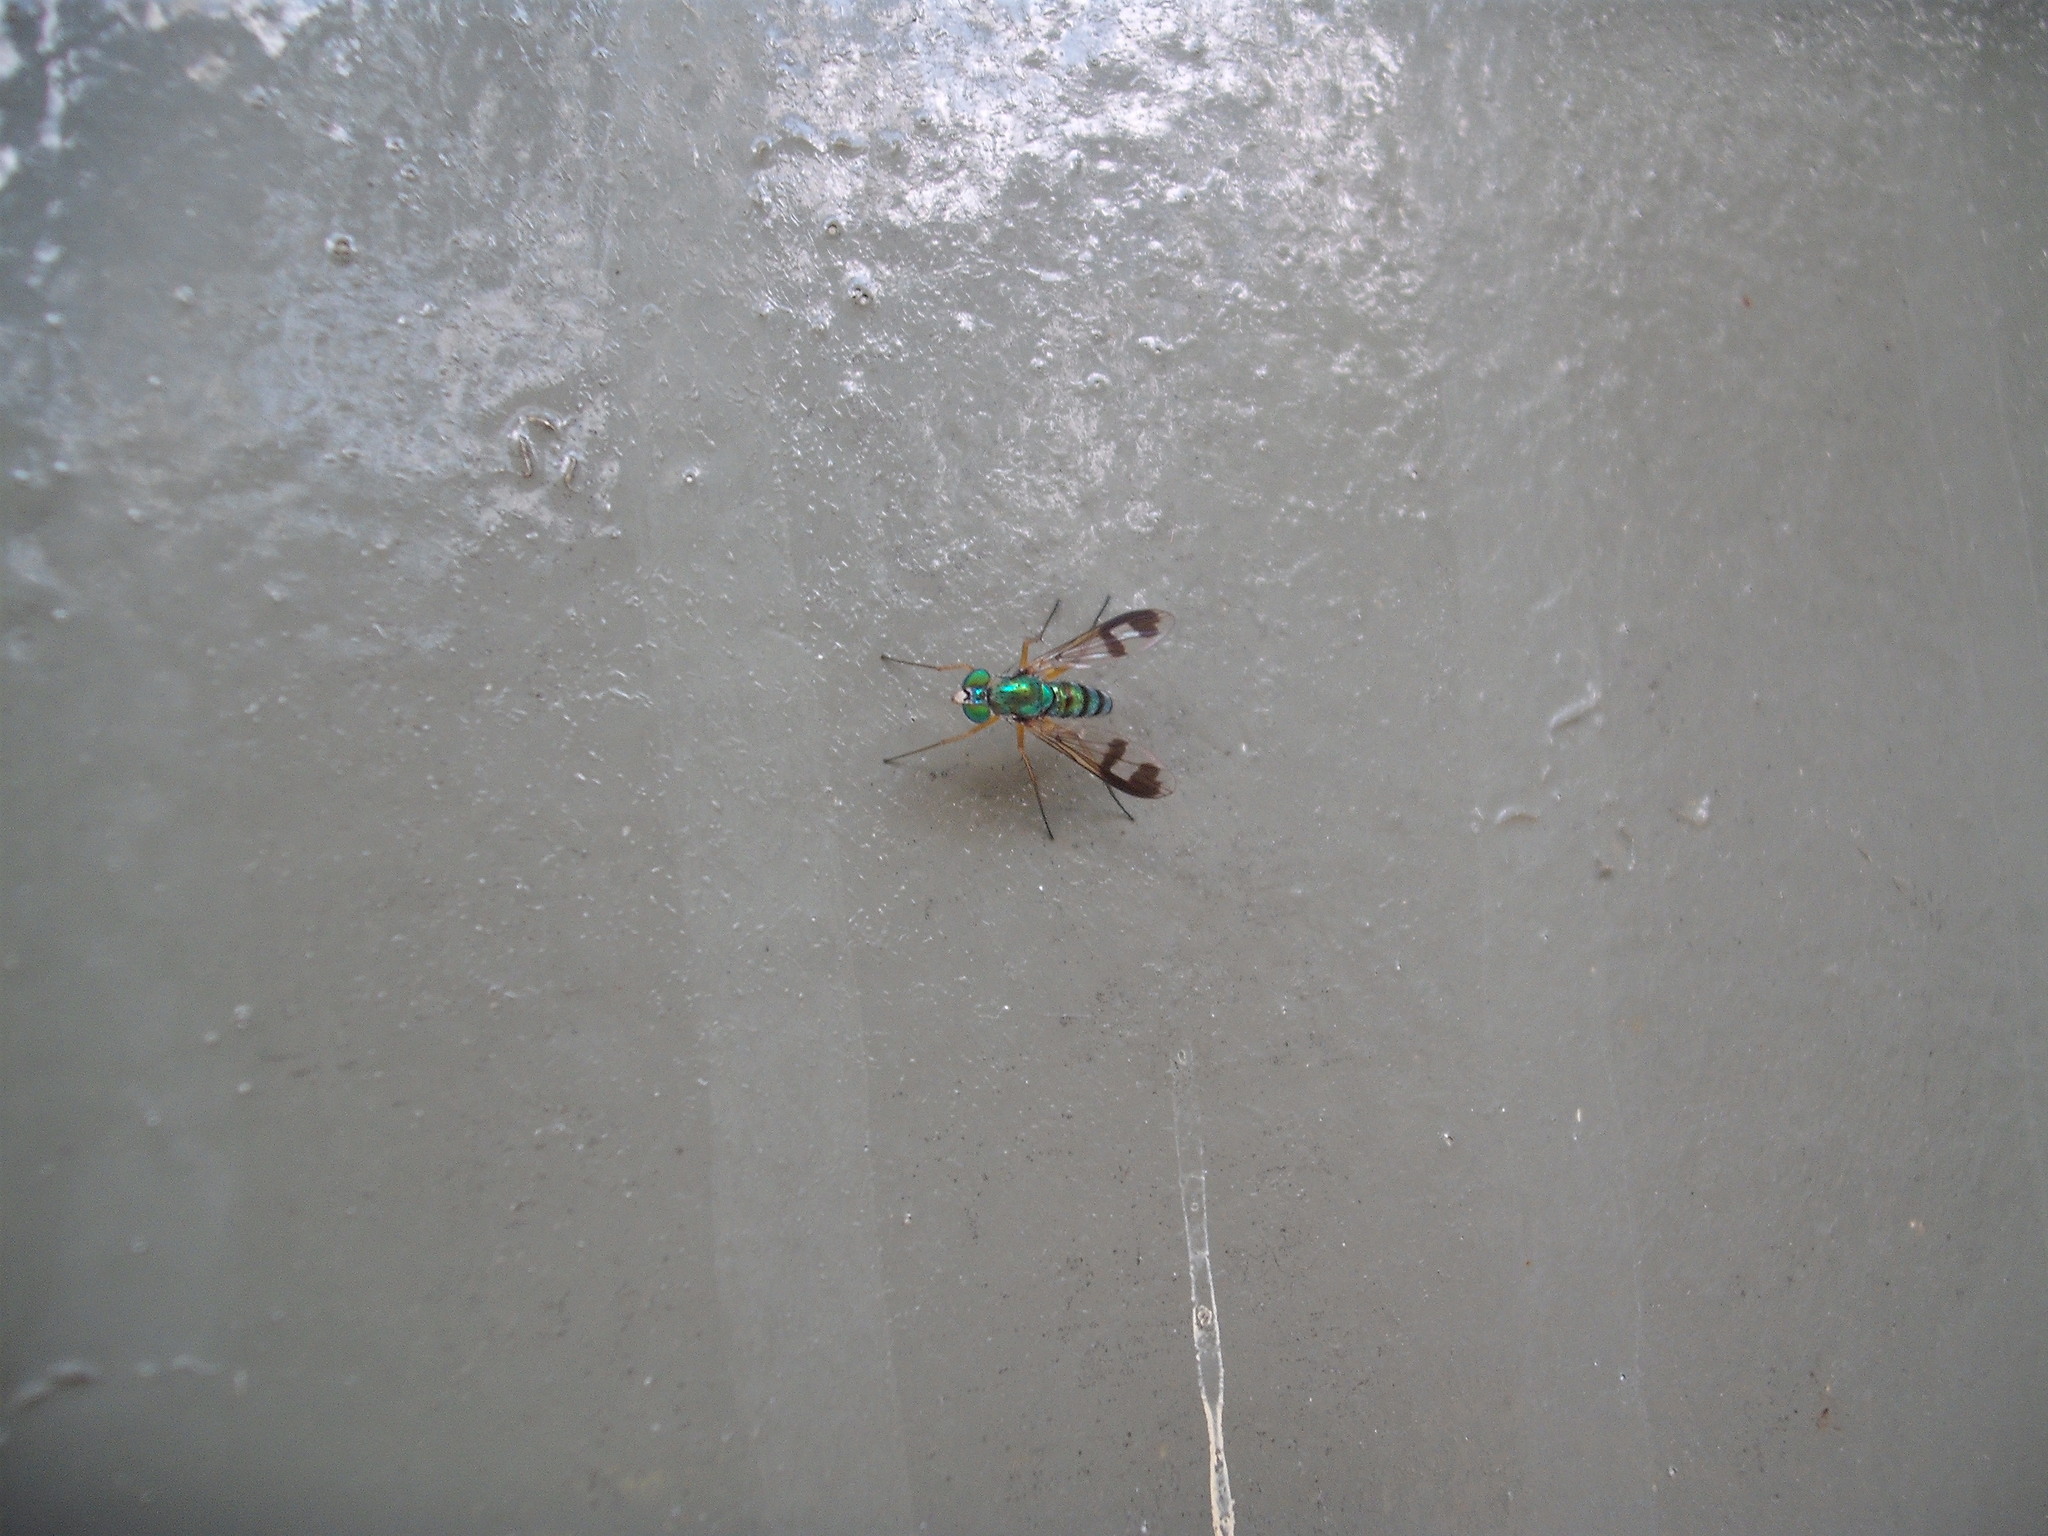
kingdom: Animalia
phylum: Arthropoda
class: Insecta
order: Diptera
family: Dolichopodidae
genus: Austrosciapus
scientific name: Austrosciapus proximus
